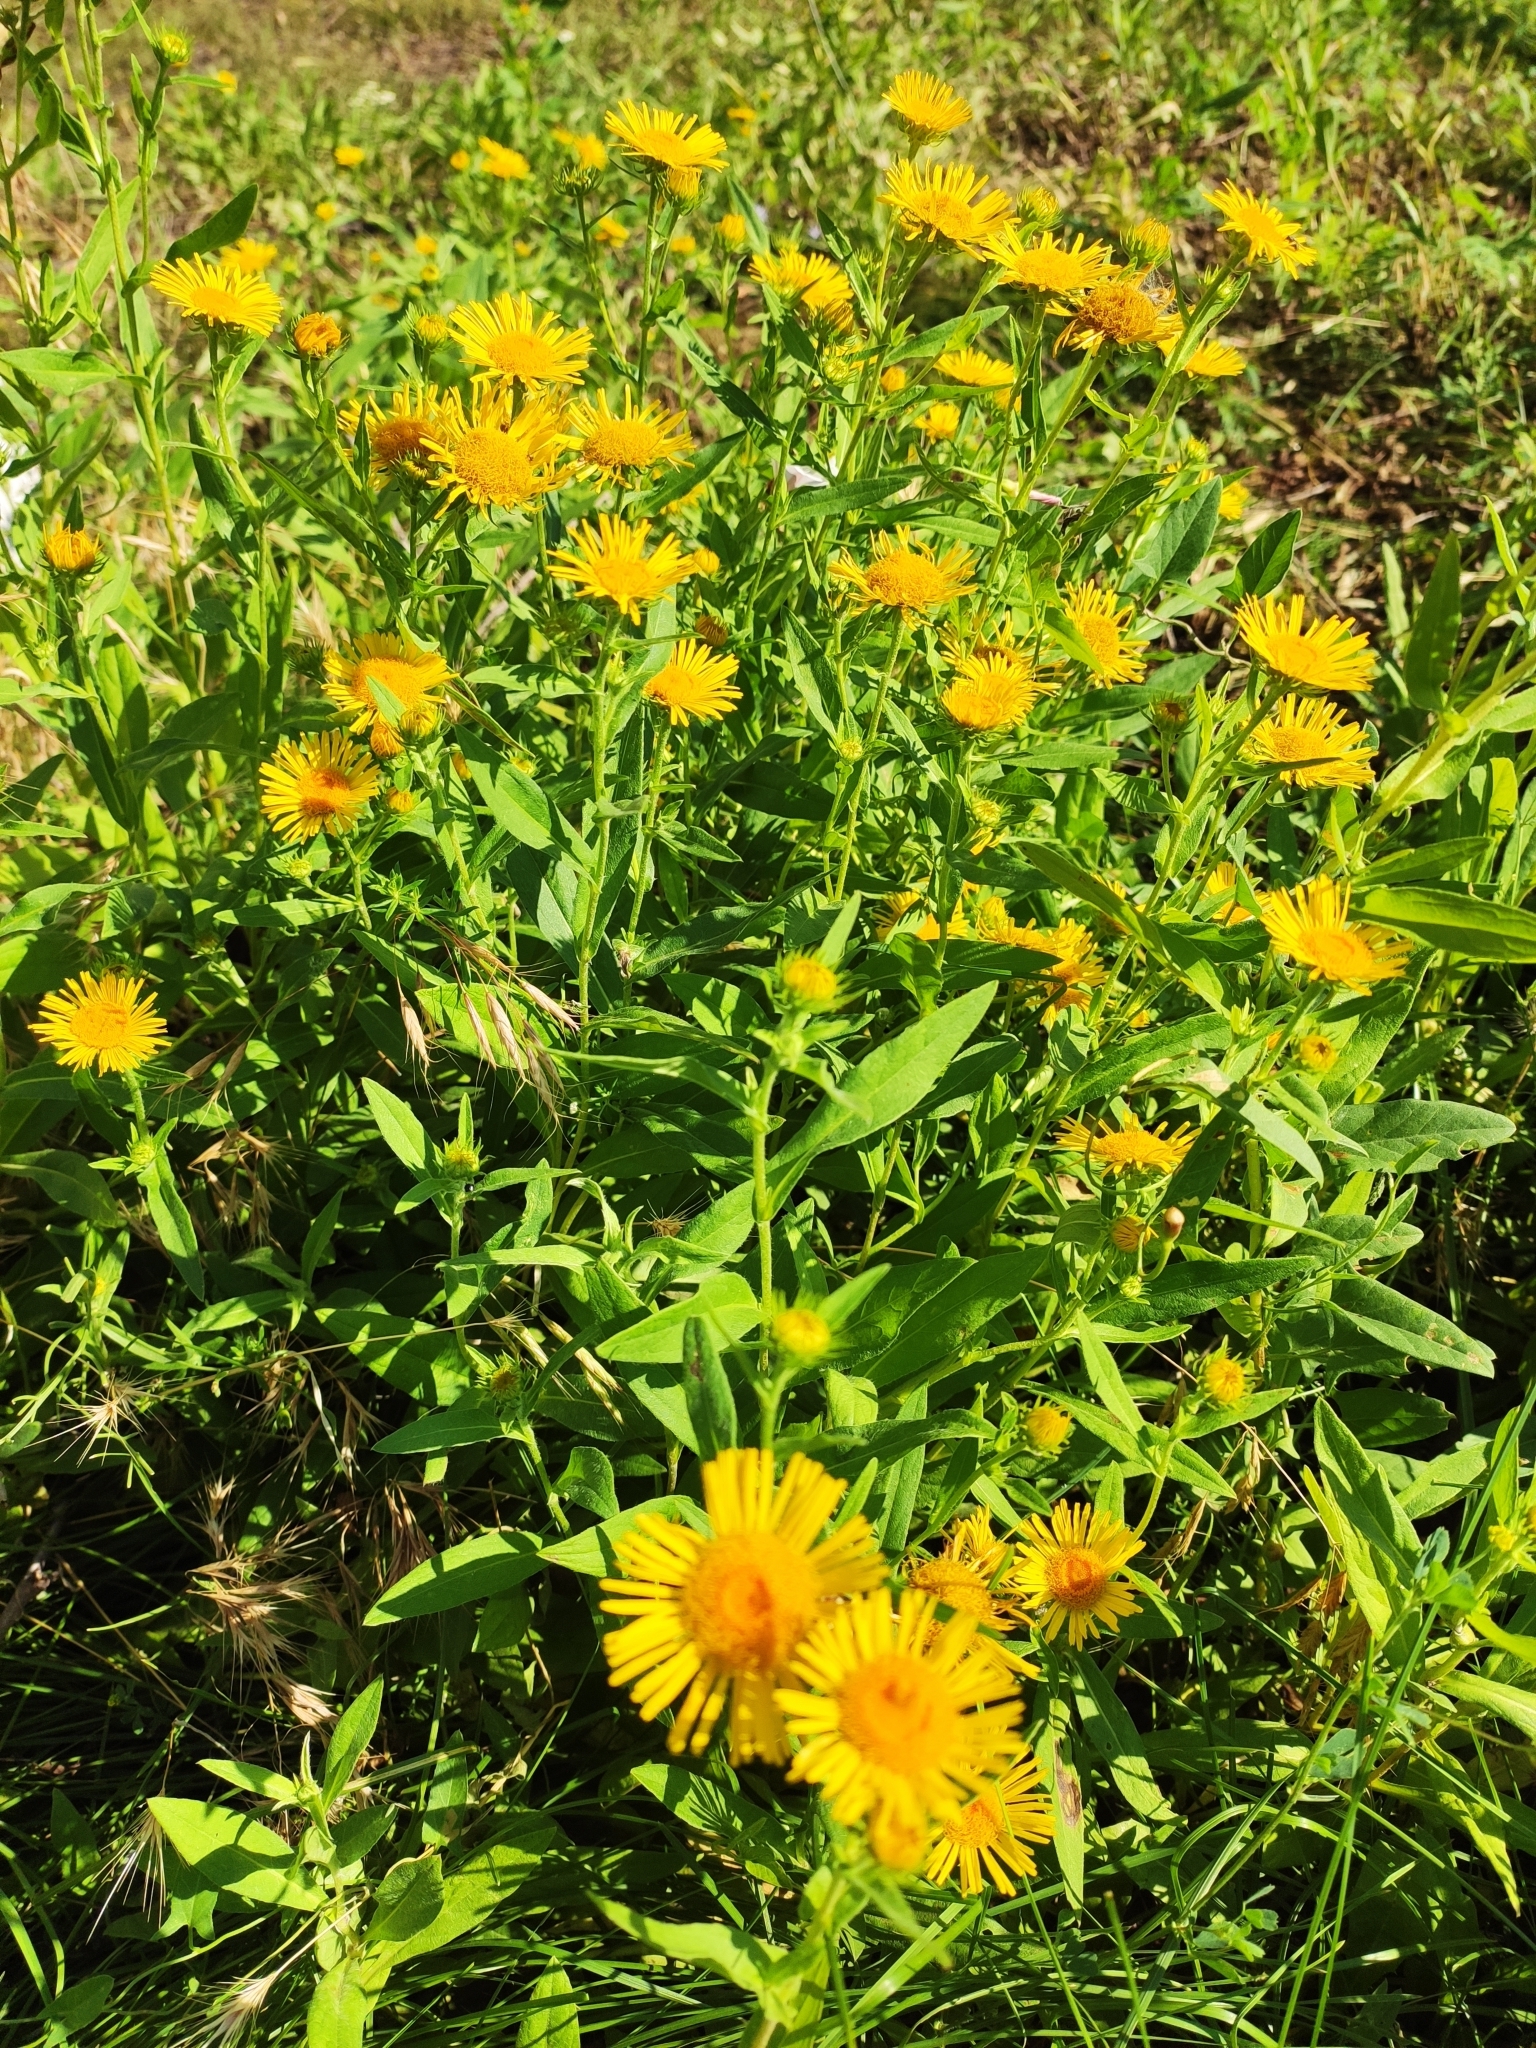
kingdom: Plantae
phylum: Tracheophyta
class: Magnoliopsida
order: Asterales
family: Asteraceae
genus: Pentanema
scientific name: Pentanema britannicum
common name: British elecampane
